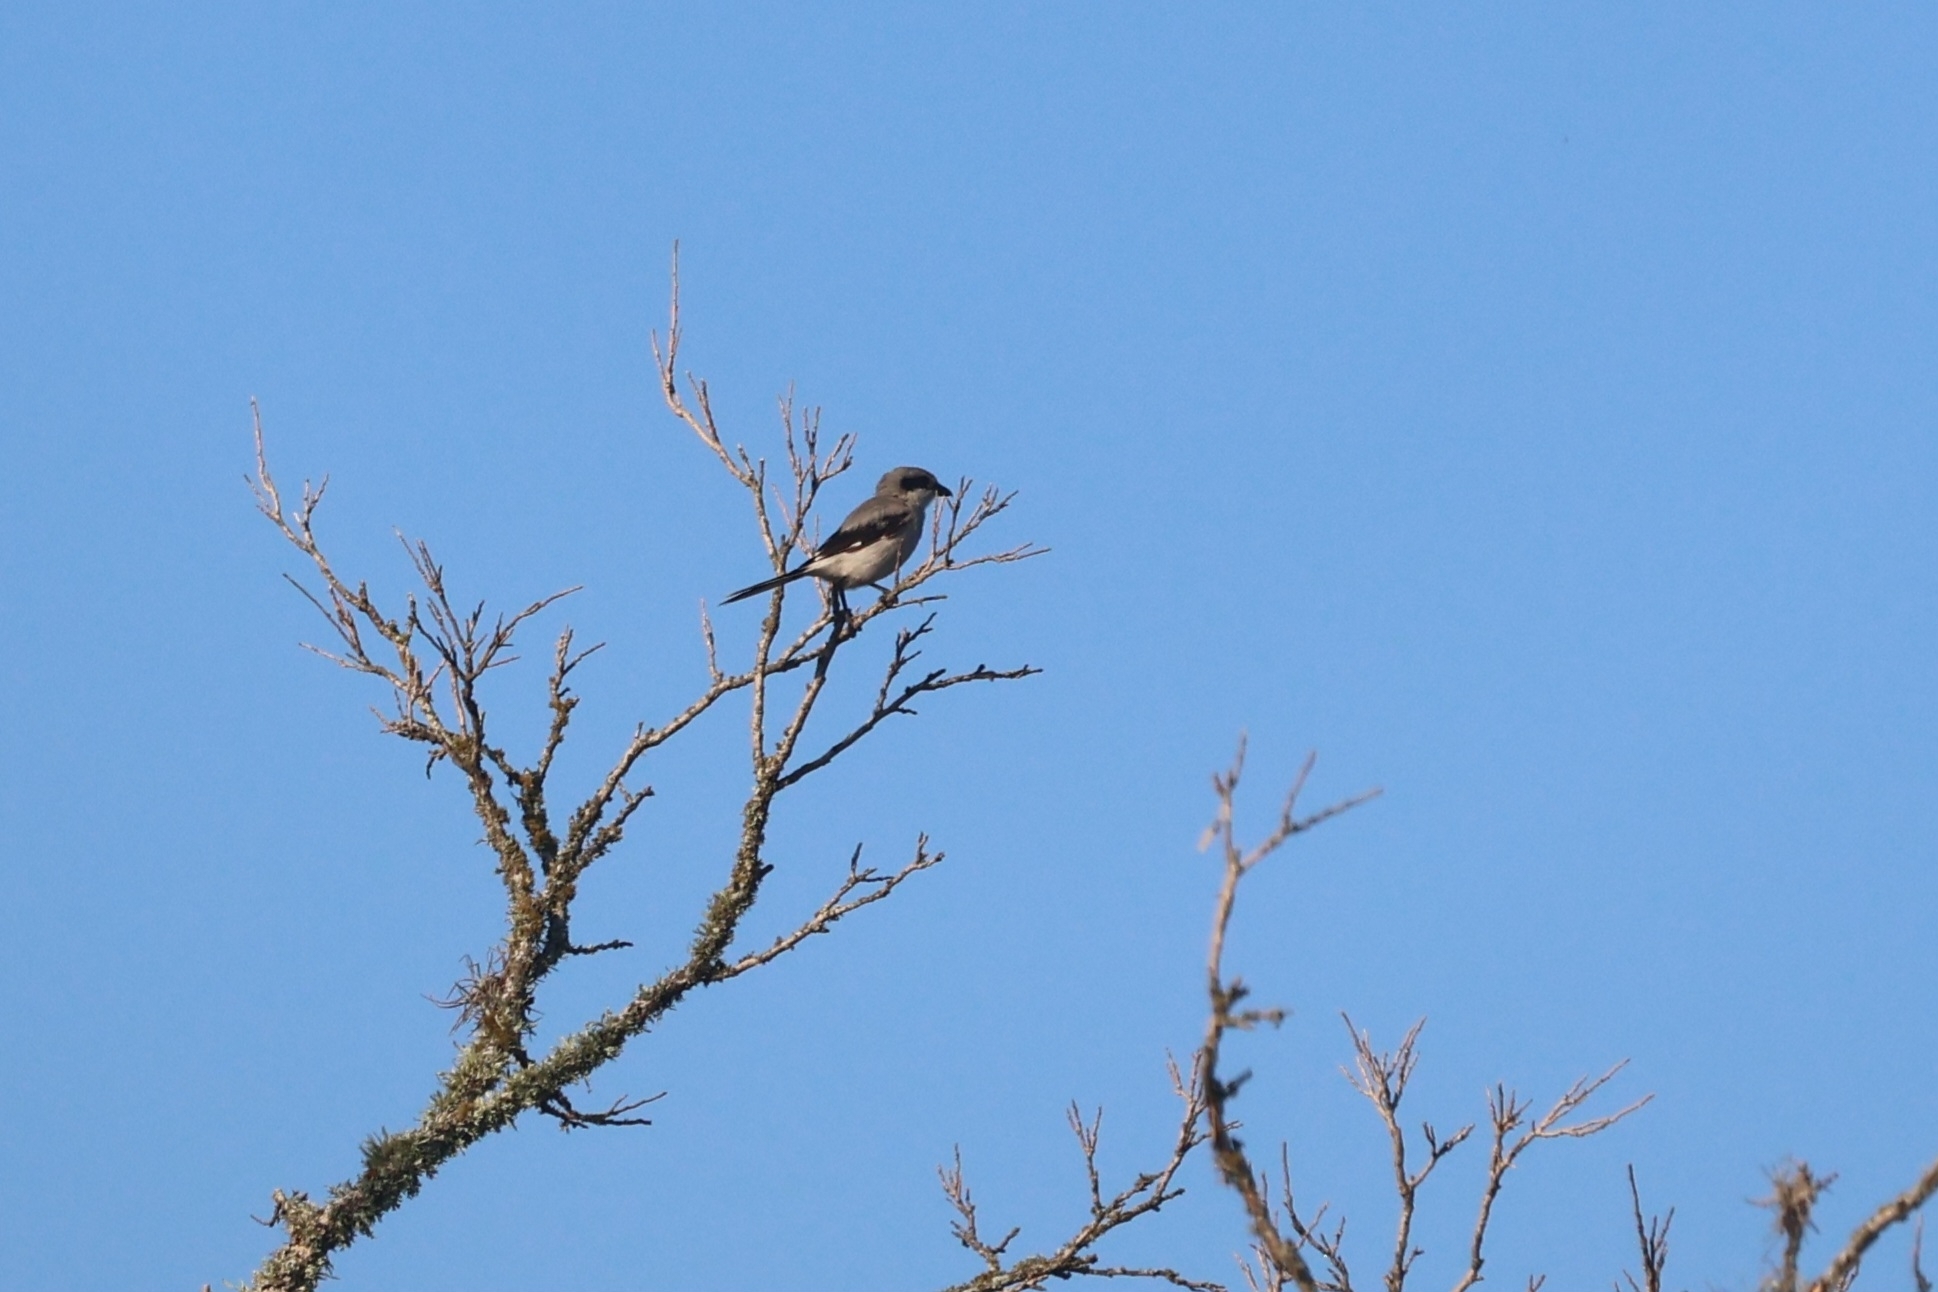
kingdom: Animalia
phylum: Chordata
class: Aves
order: Passeriformes
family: Laniidae
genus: Lanius
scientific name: Lanius ludovicianus
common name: Loggerhead shrike
